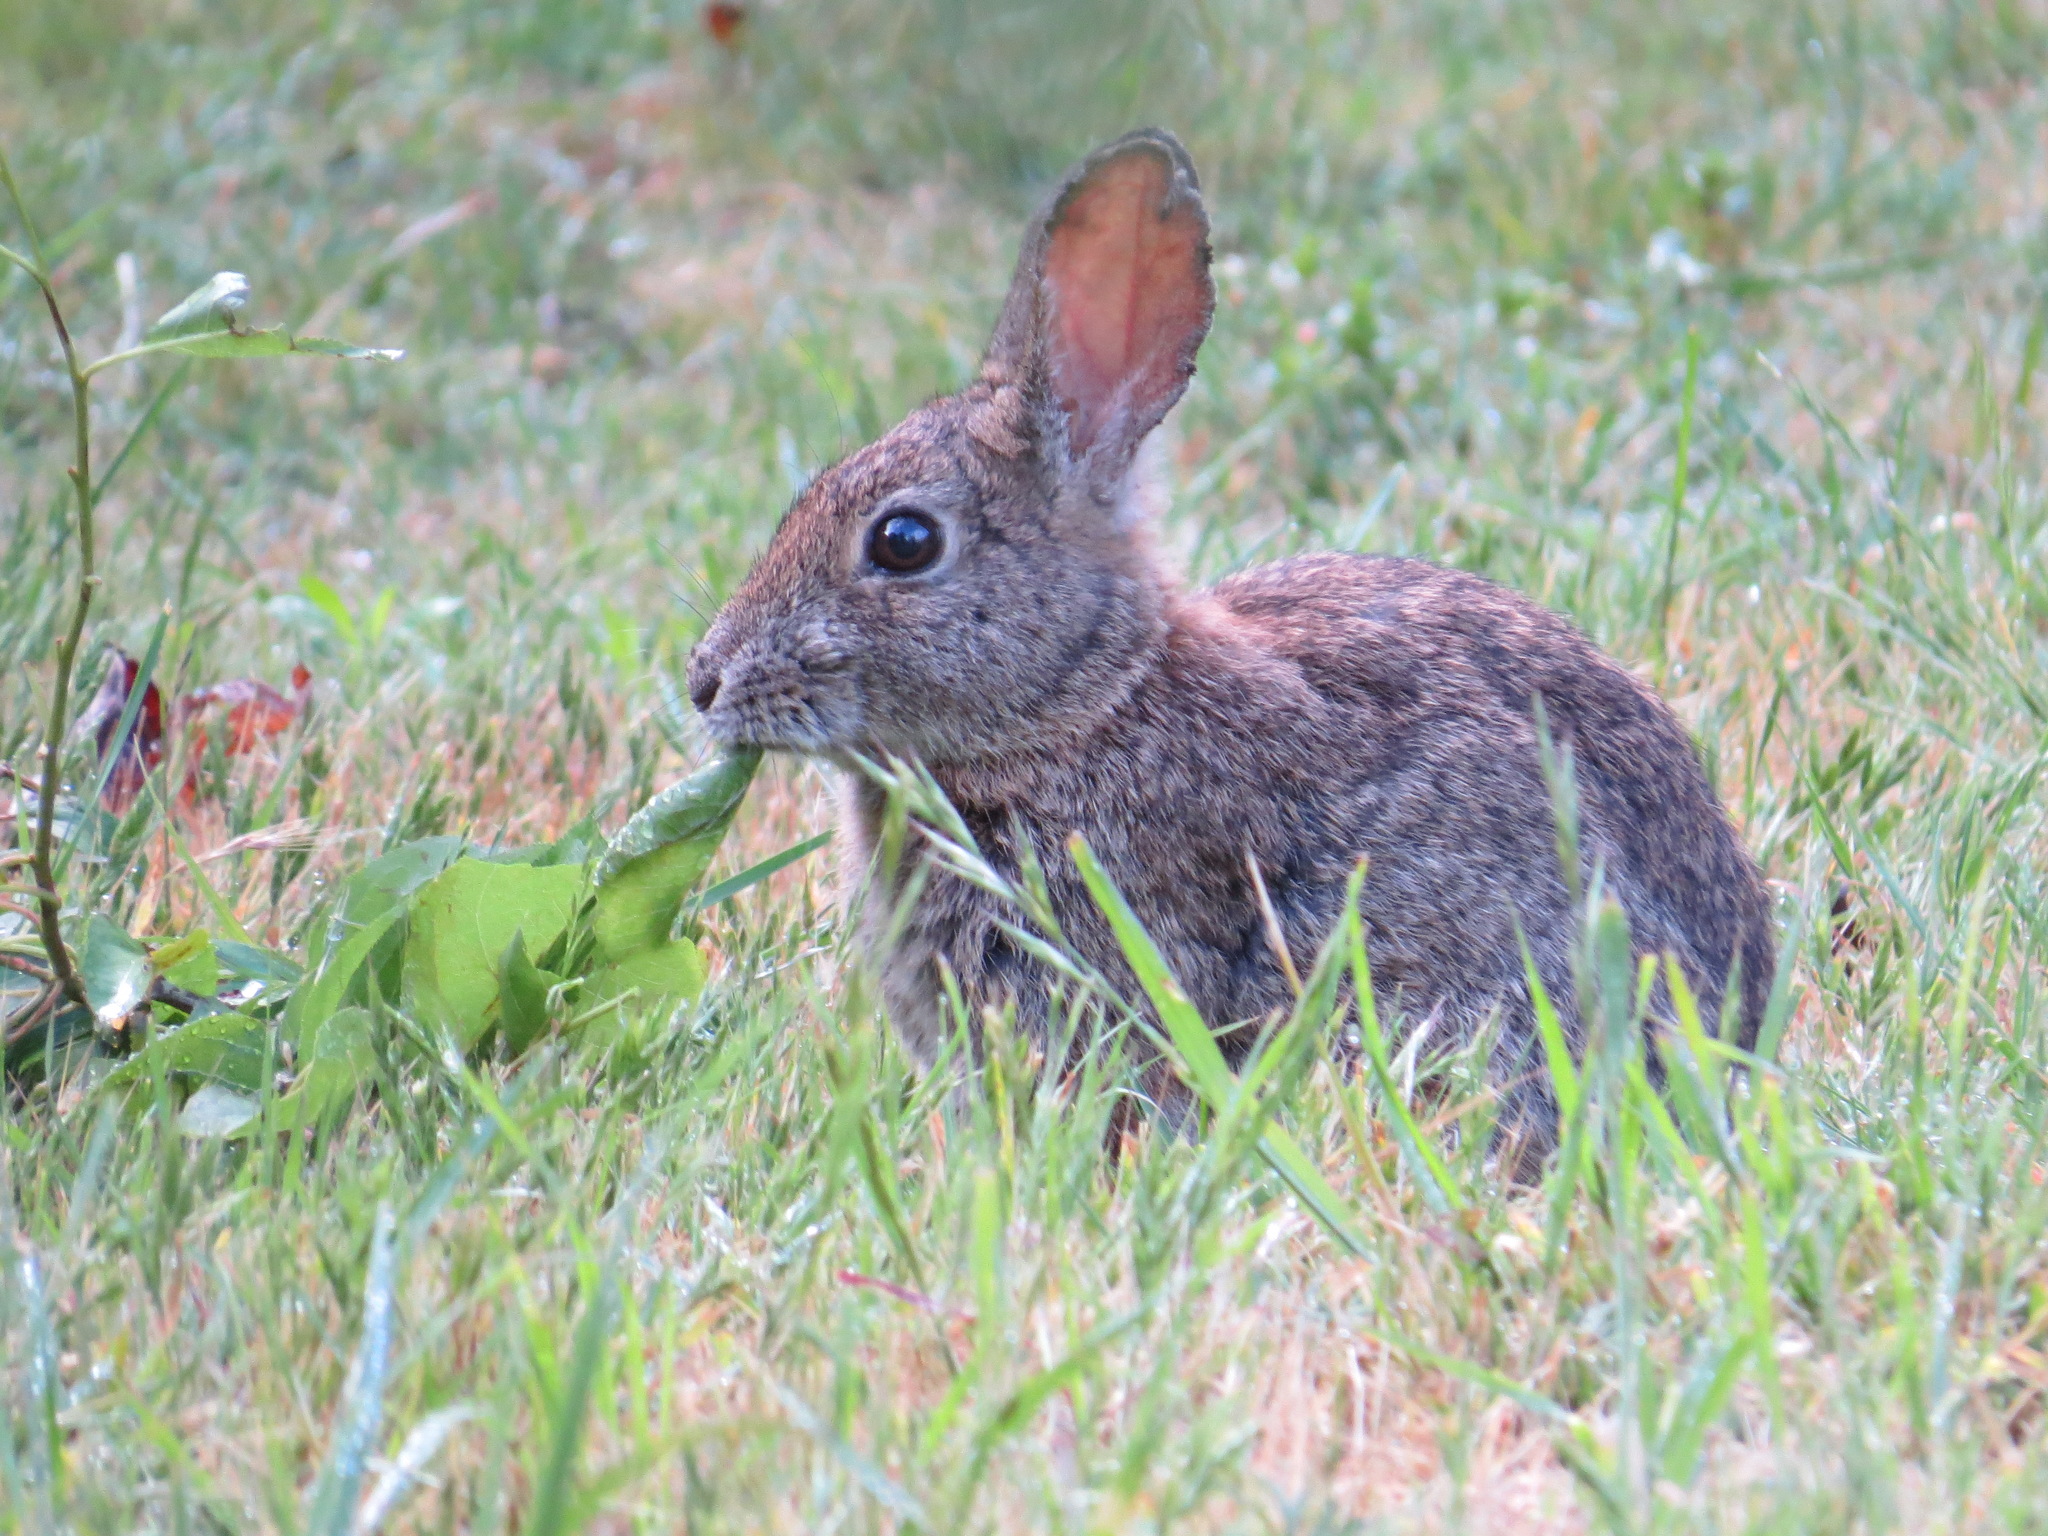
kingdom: Animalia
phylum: Chordata
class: Mammalia
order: Lagomorpha
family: Leporidae
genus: Sylvilagus
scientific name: Sylvilagus bachmani
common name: Brush rabbit
